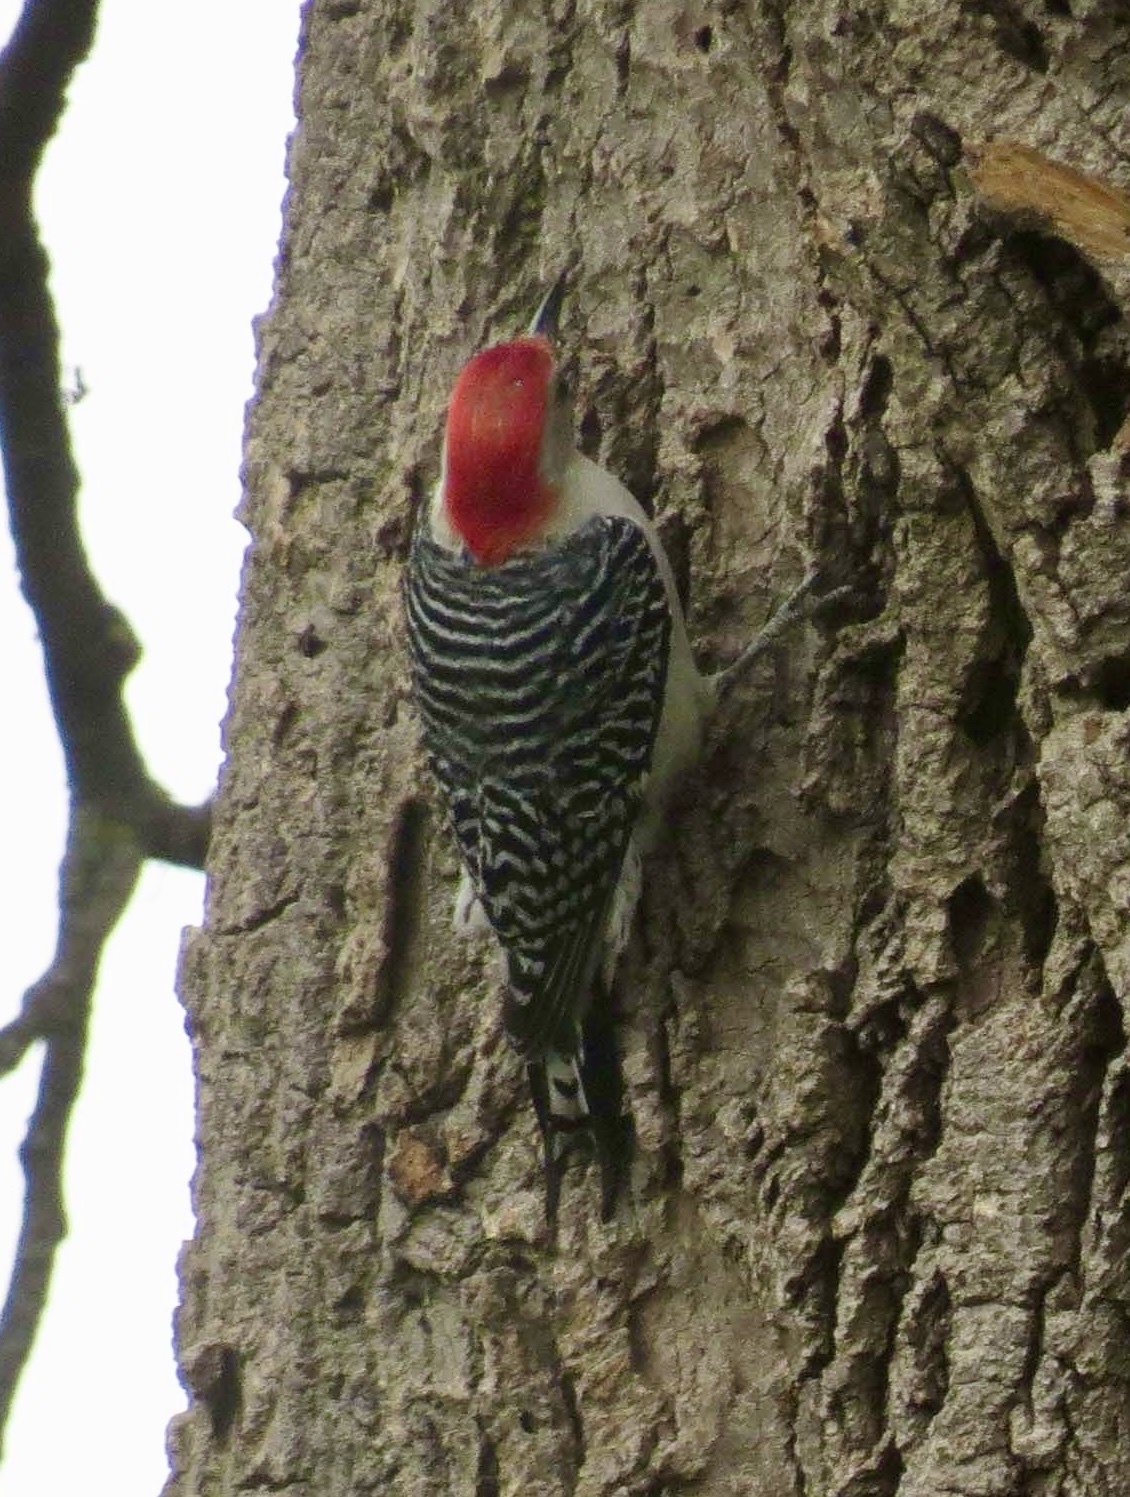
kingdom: Animalia
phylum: Chordata
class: Aves
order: Piciformes
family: Picidae
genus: Melanerpes
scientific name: Melanerpes carolinus
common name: Red-bellied woodpecker
